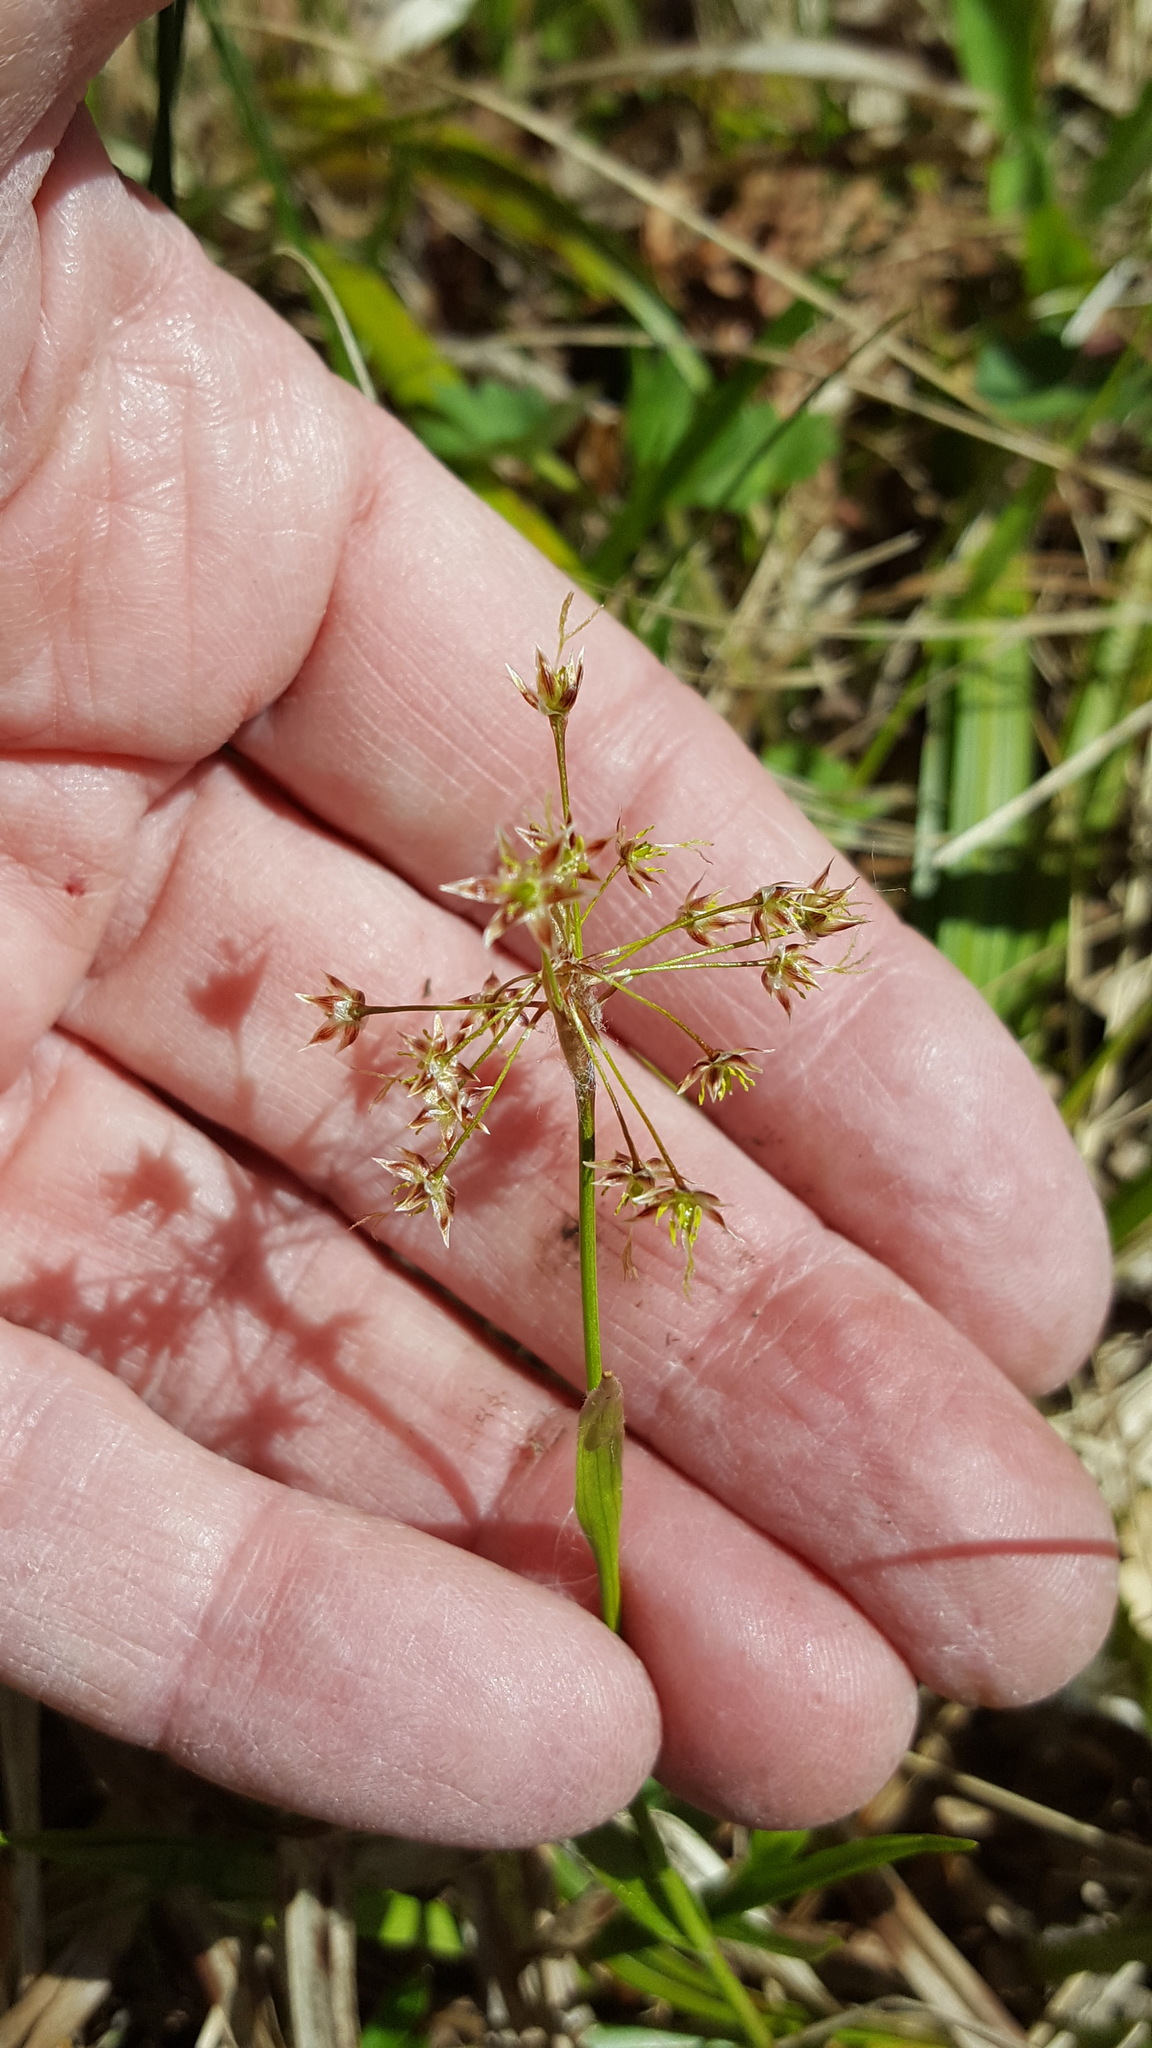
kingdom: Plantae
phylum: Tracheophyta
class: Liliopsida
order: Poales
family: Juncaceae
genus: Luzula
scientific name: Luzula acuminata
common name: Hairy woodrush
